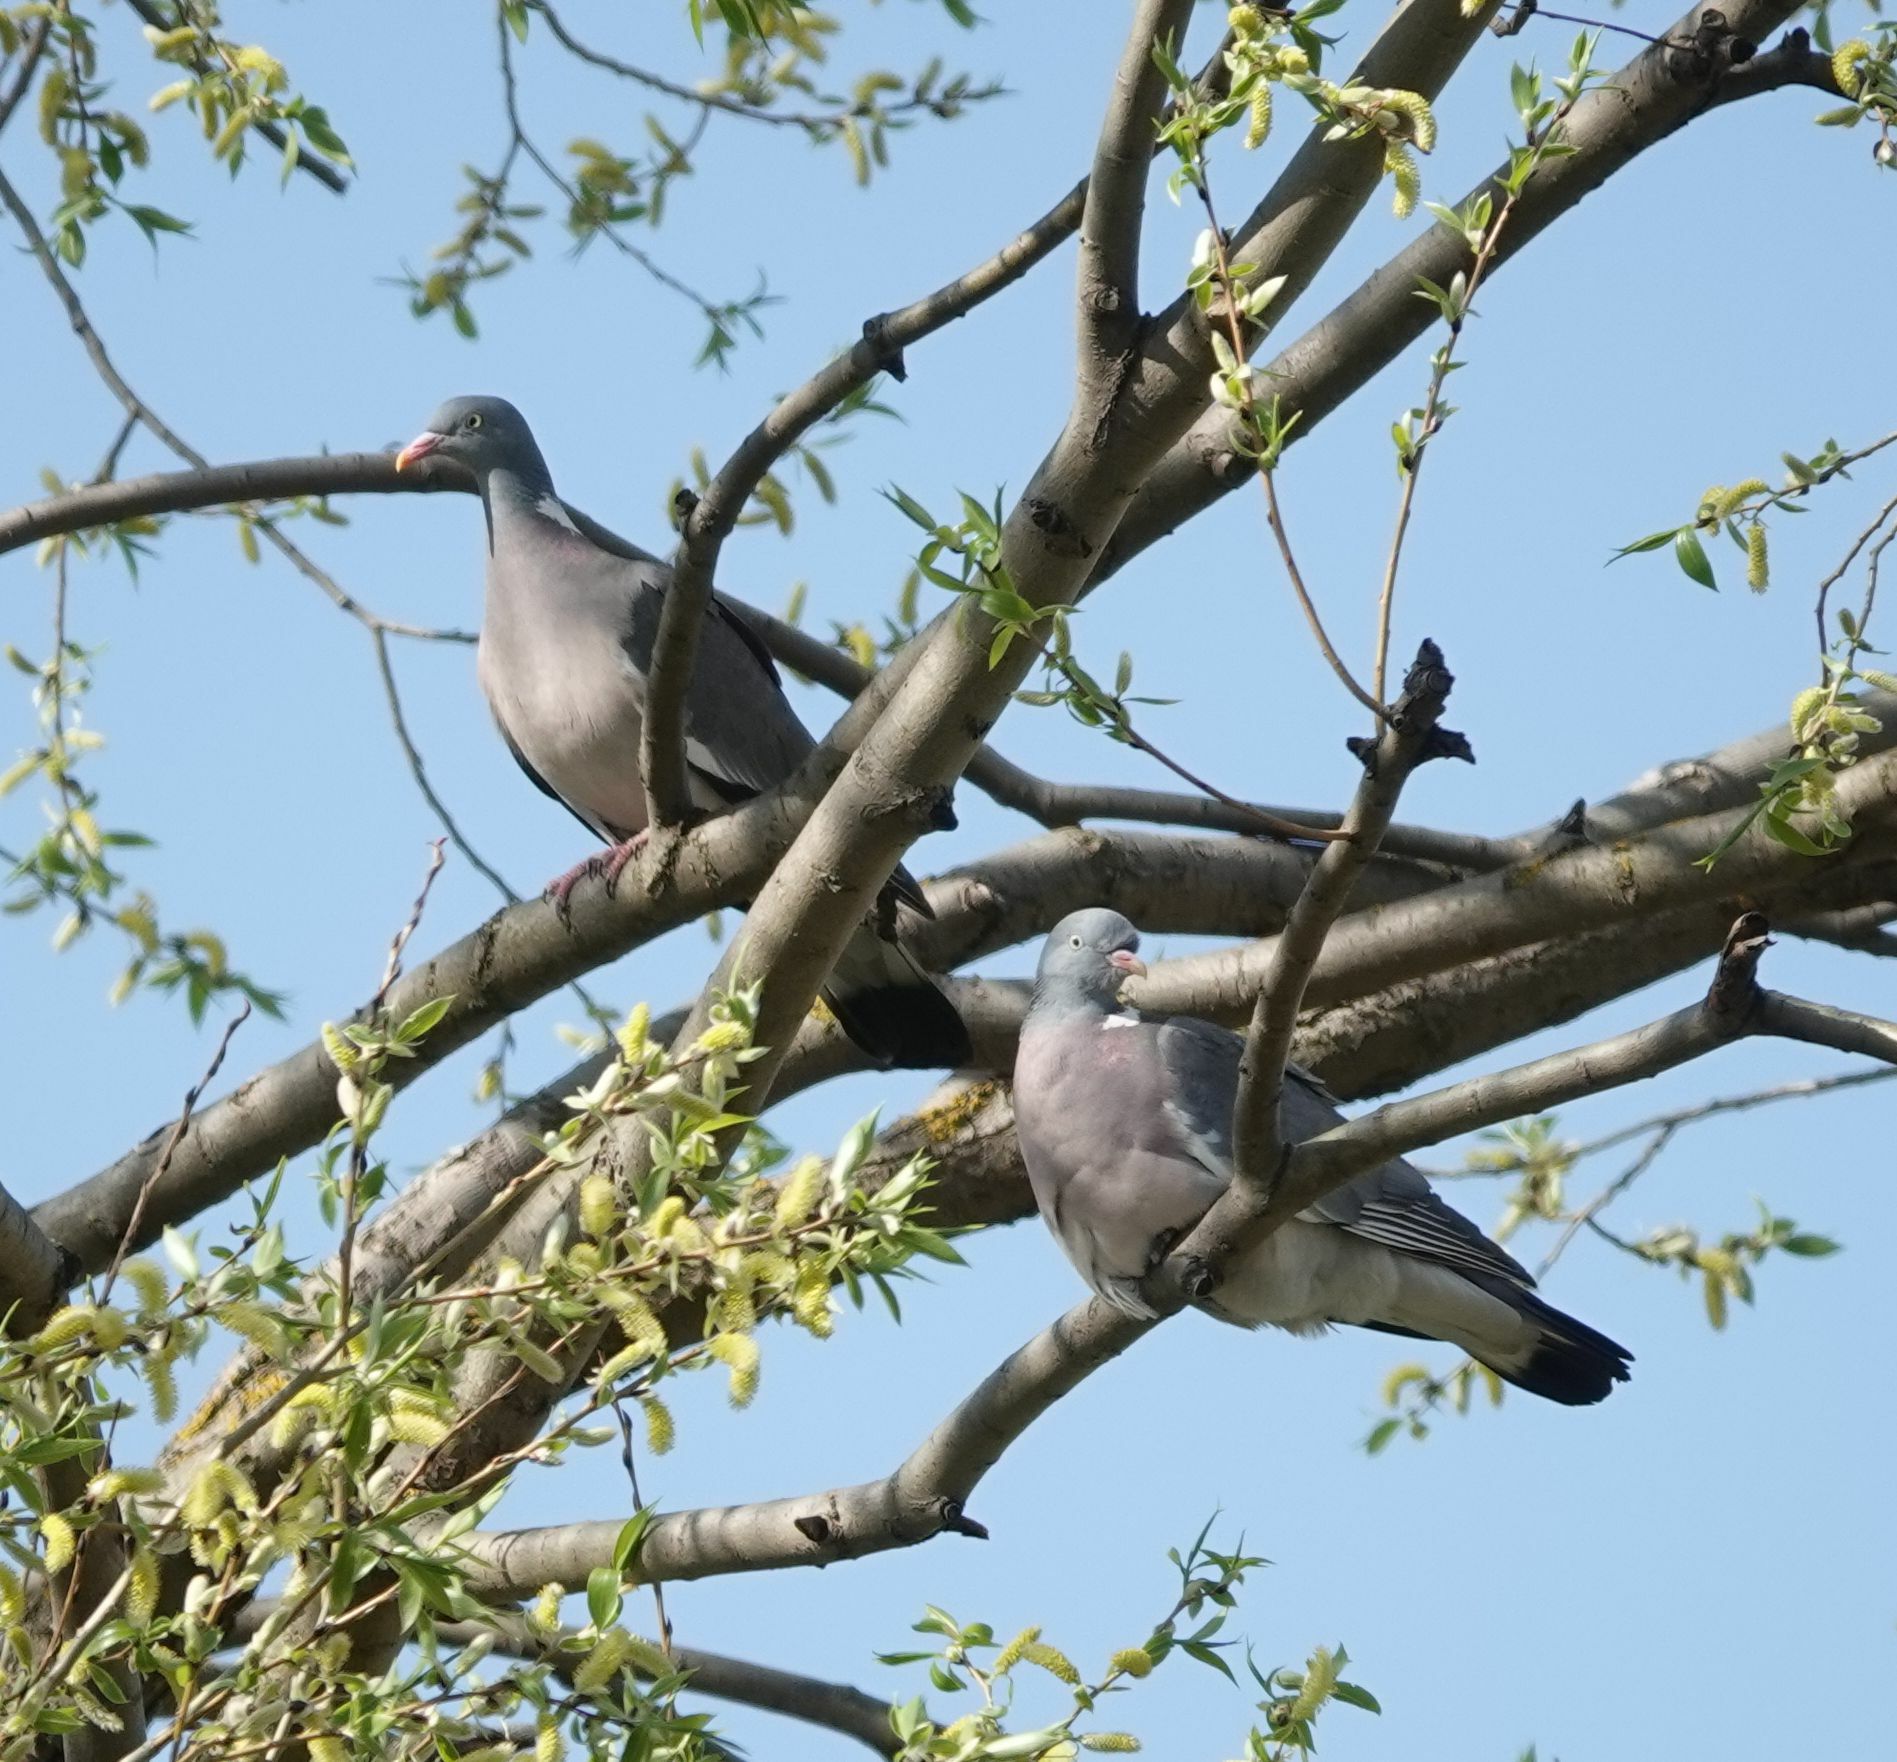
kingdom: Animalia
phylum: Chordata
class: Aves
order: Columbiformes
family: Columbidae
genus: Columba
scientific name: Columba palumbus
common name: Common wood pigeon
